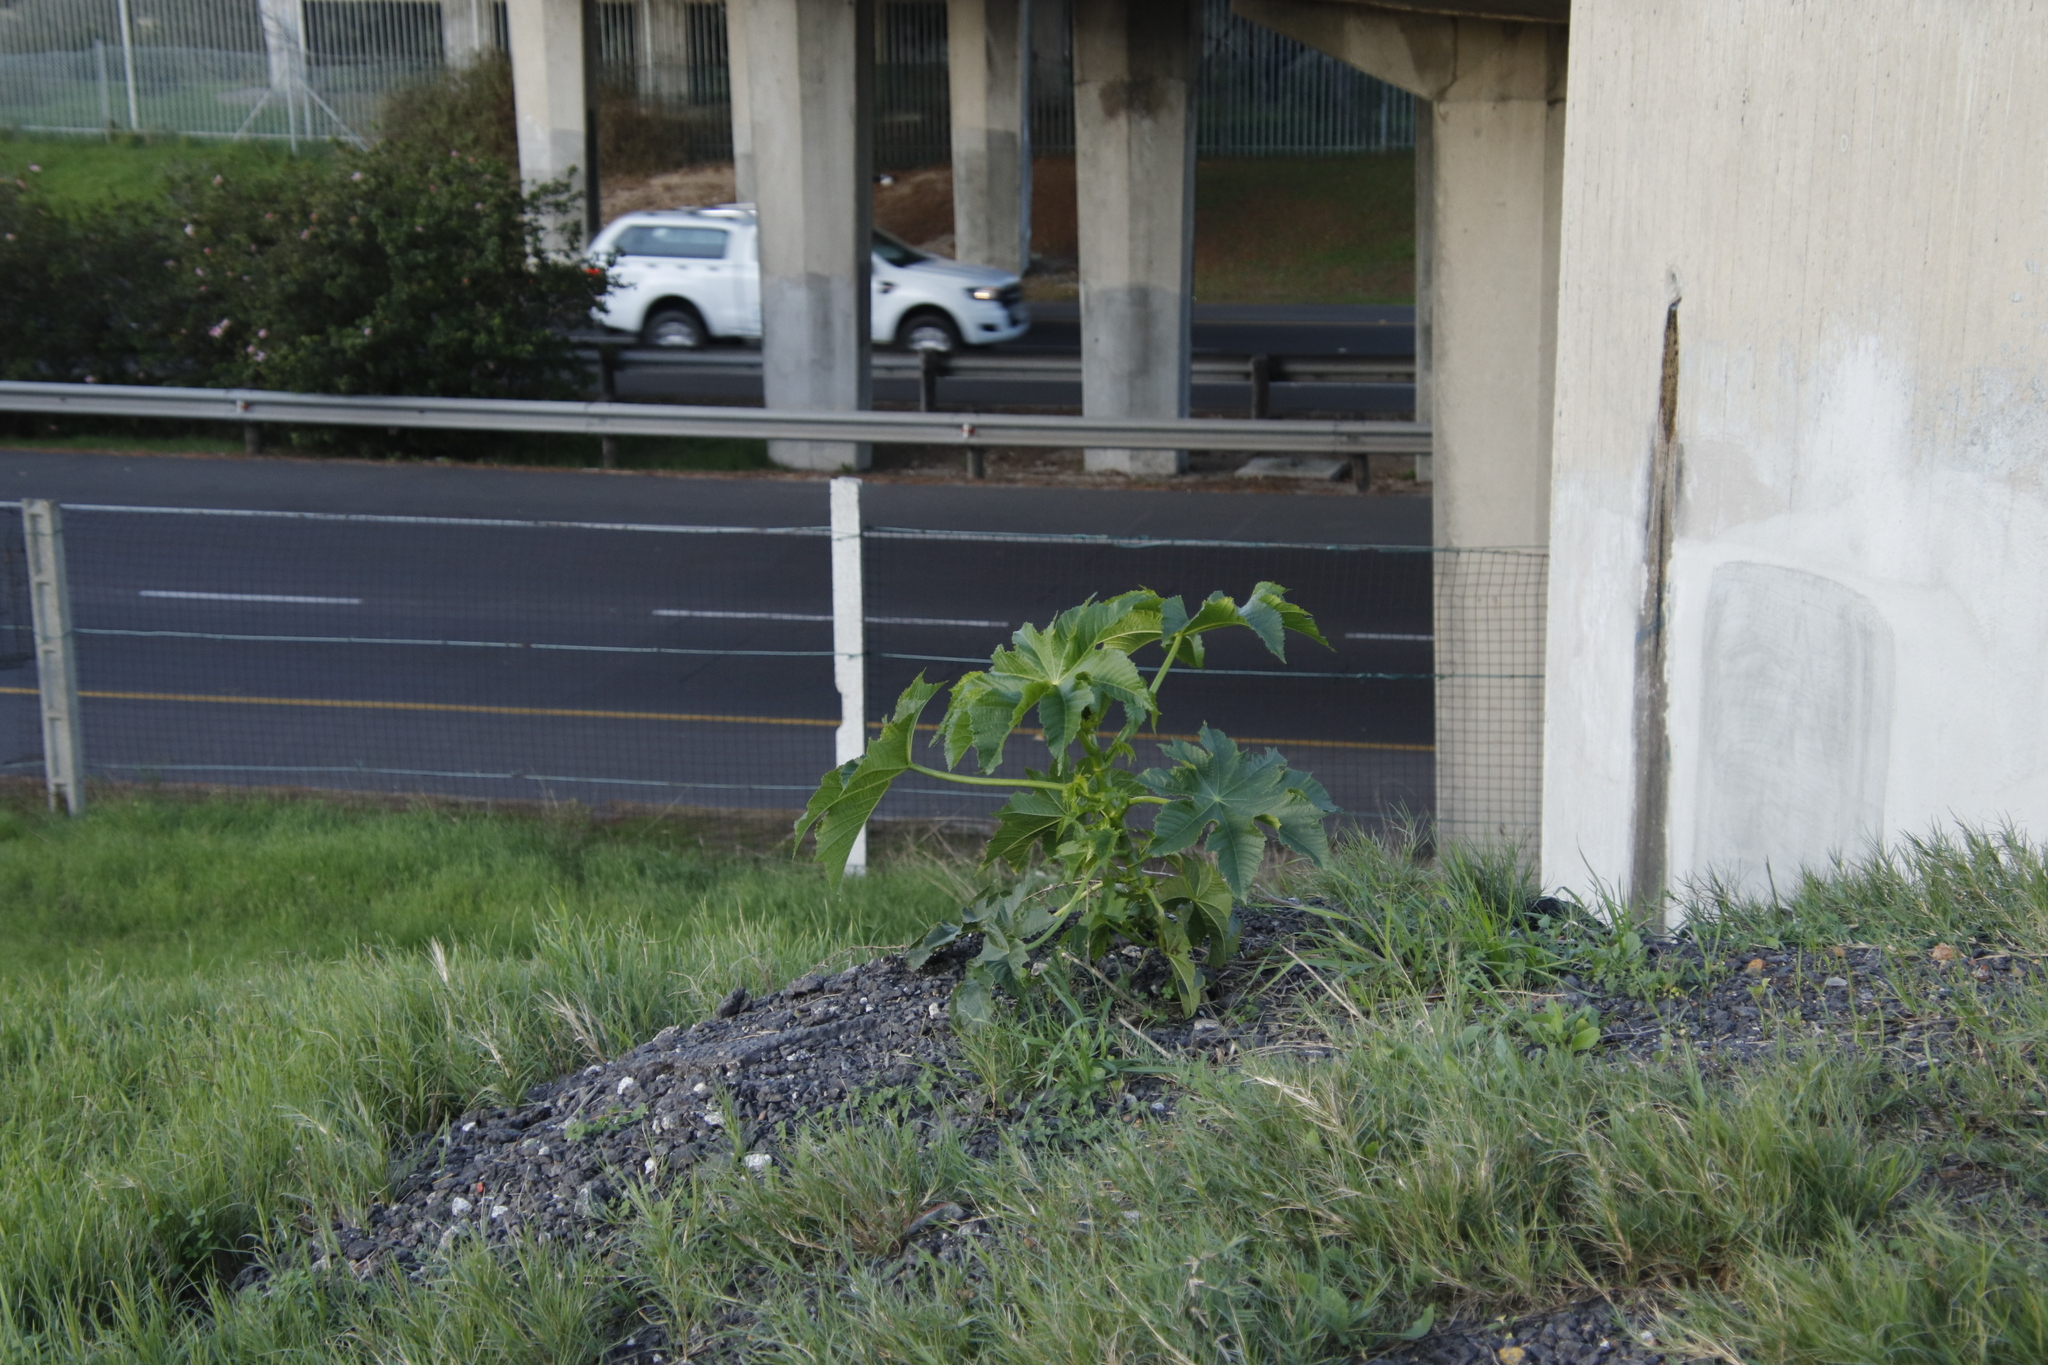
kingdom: Plantae
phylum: Tracheophyta
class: Magnoliopsida
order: Malpighiales
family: Euphorbiaceae
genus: Ricinus
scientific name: Ricinus communis
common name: Castor-oil-plant
